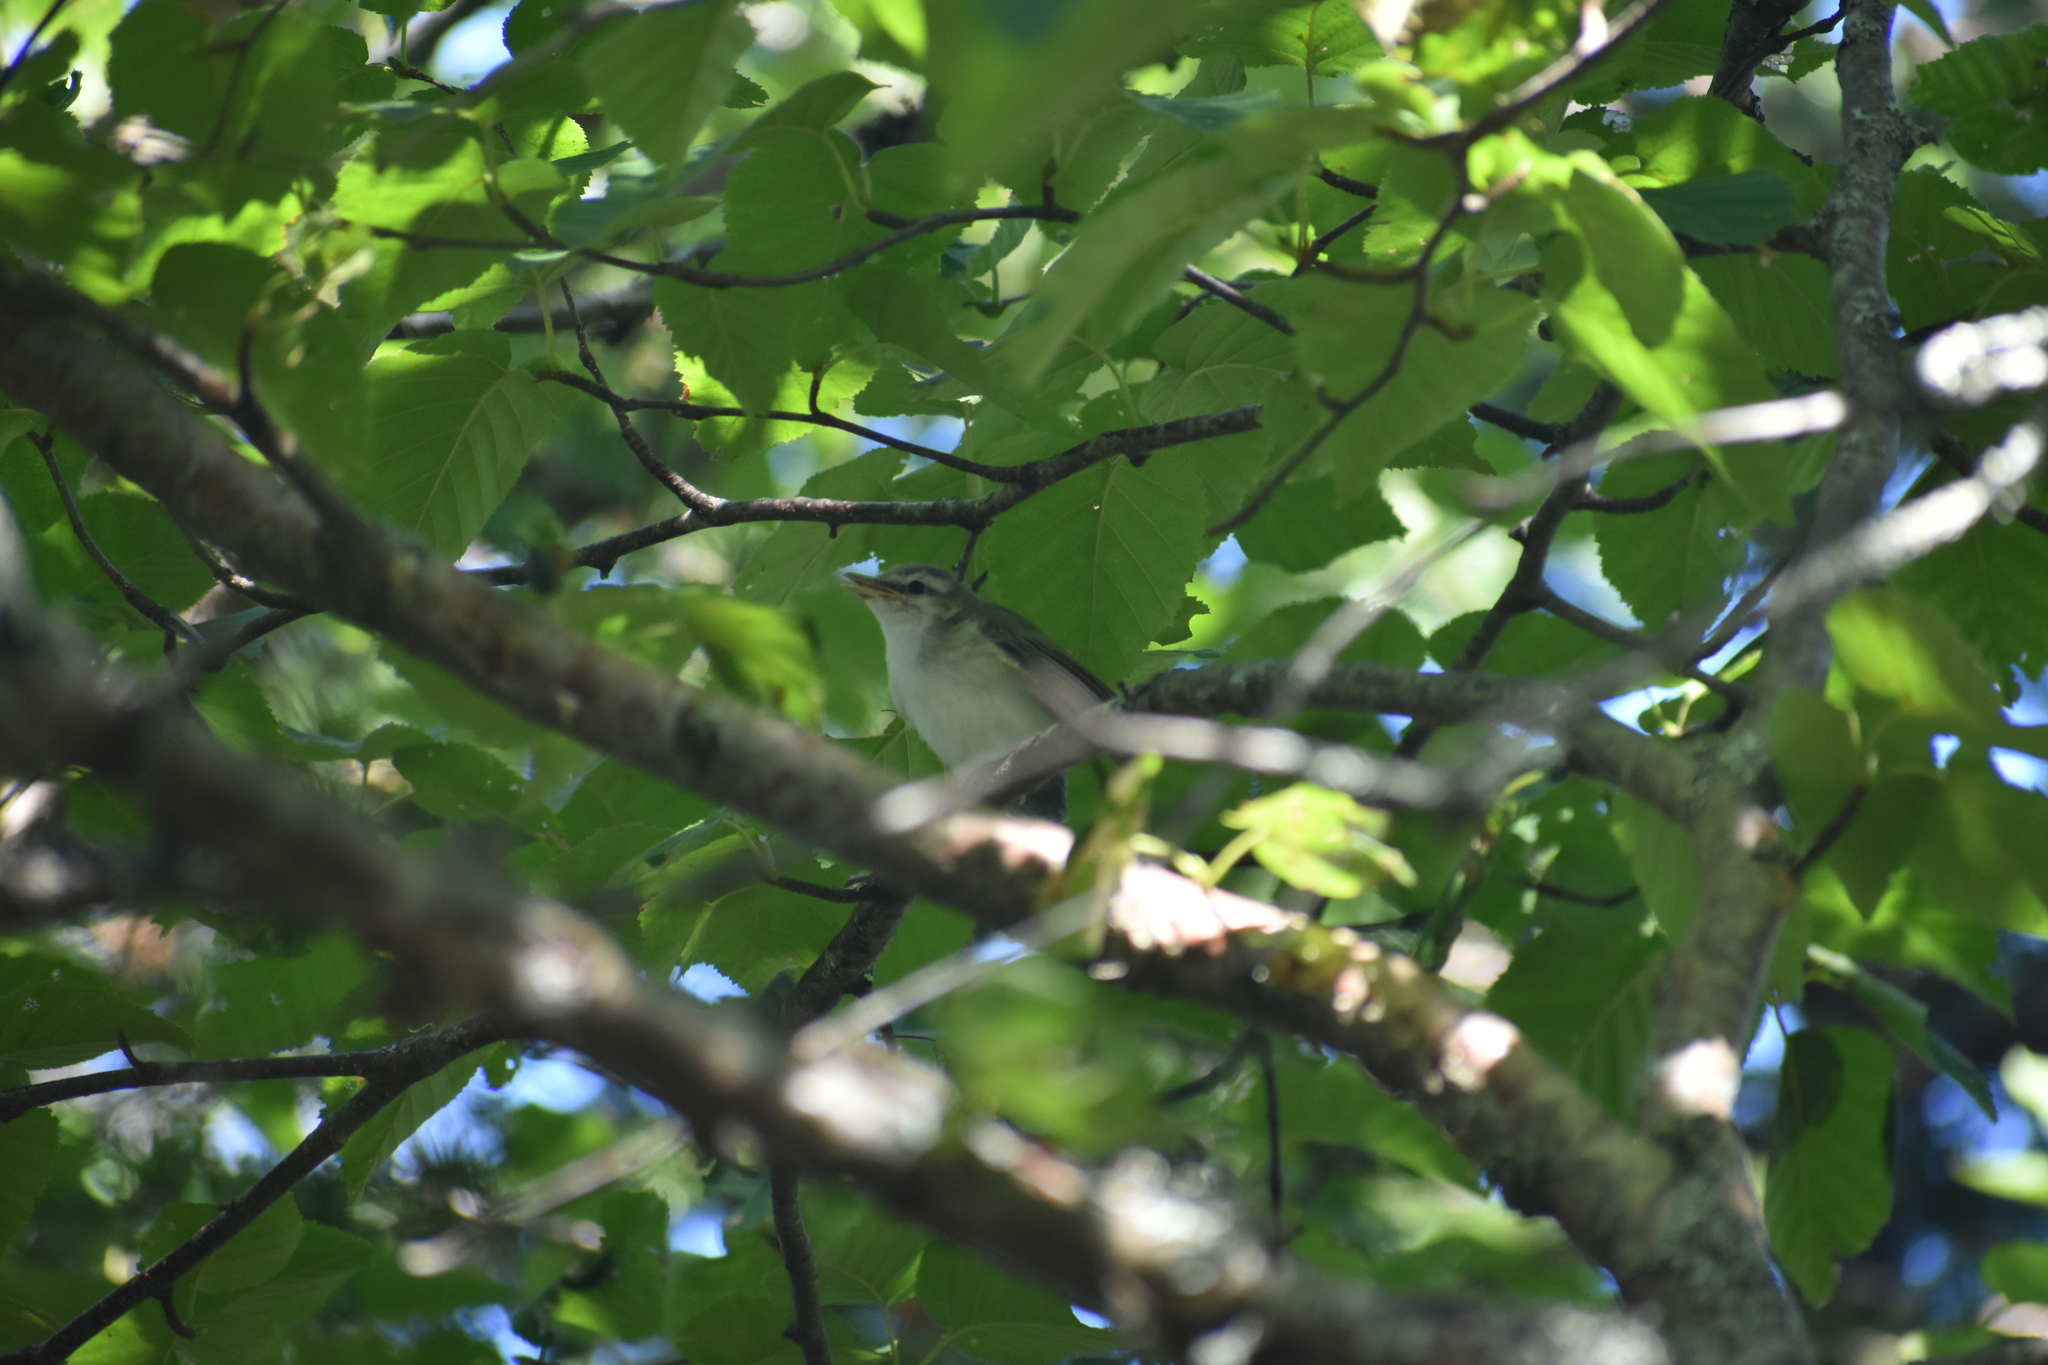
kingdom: Animalia
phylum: Chordata
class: Aves
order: Passeriformes
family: Vireonidae
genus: Vireo
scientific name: Vireo olivaceus
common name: Red-eyed vireo
